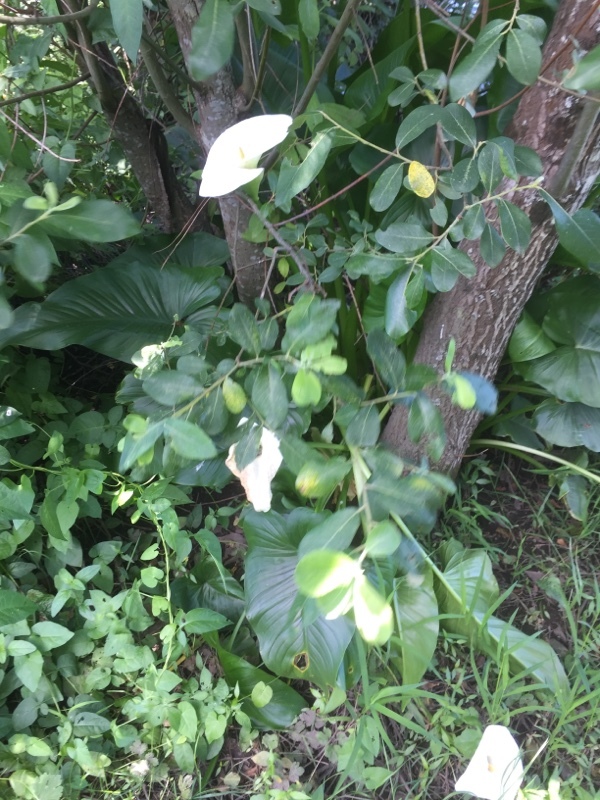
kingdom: Plantae
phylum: Tracheophyta
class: Liliopsida
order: Alismatales
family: Araceae
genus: Zantedeschia
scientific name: Zantedeschia aethiopica
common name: Altar-lily
